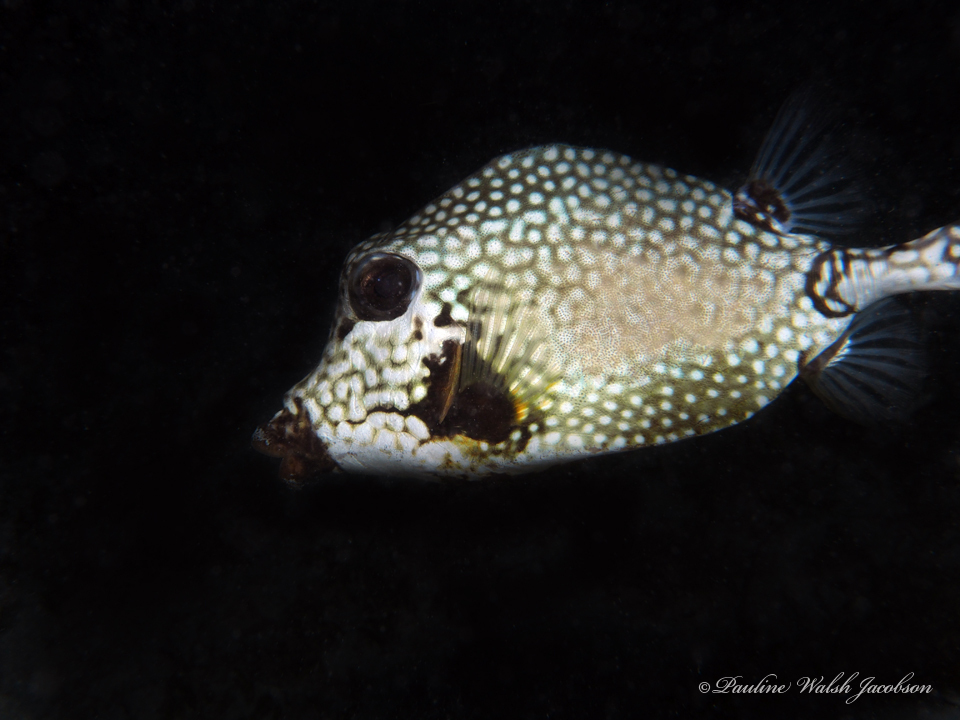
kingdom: Animalia
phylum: Chordata
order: Tetraodontiformes
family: Ostraciidae
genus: Lactophrys
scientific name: Lactophrys triqueter
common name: Smooth trunkfish
